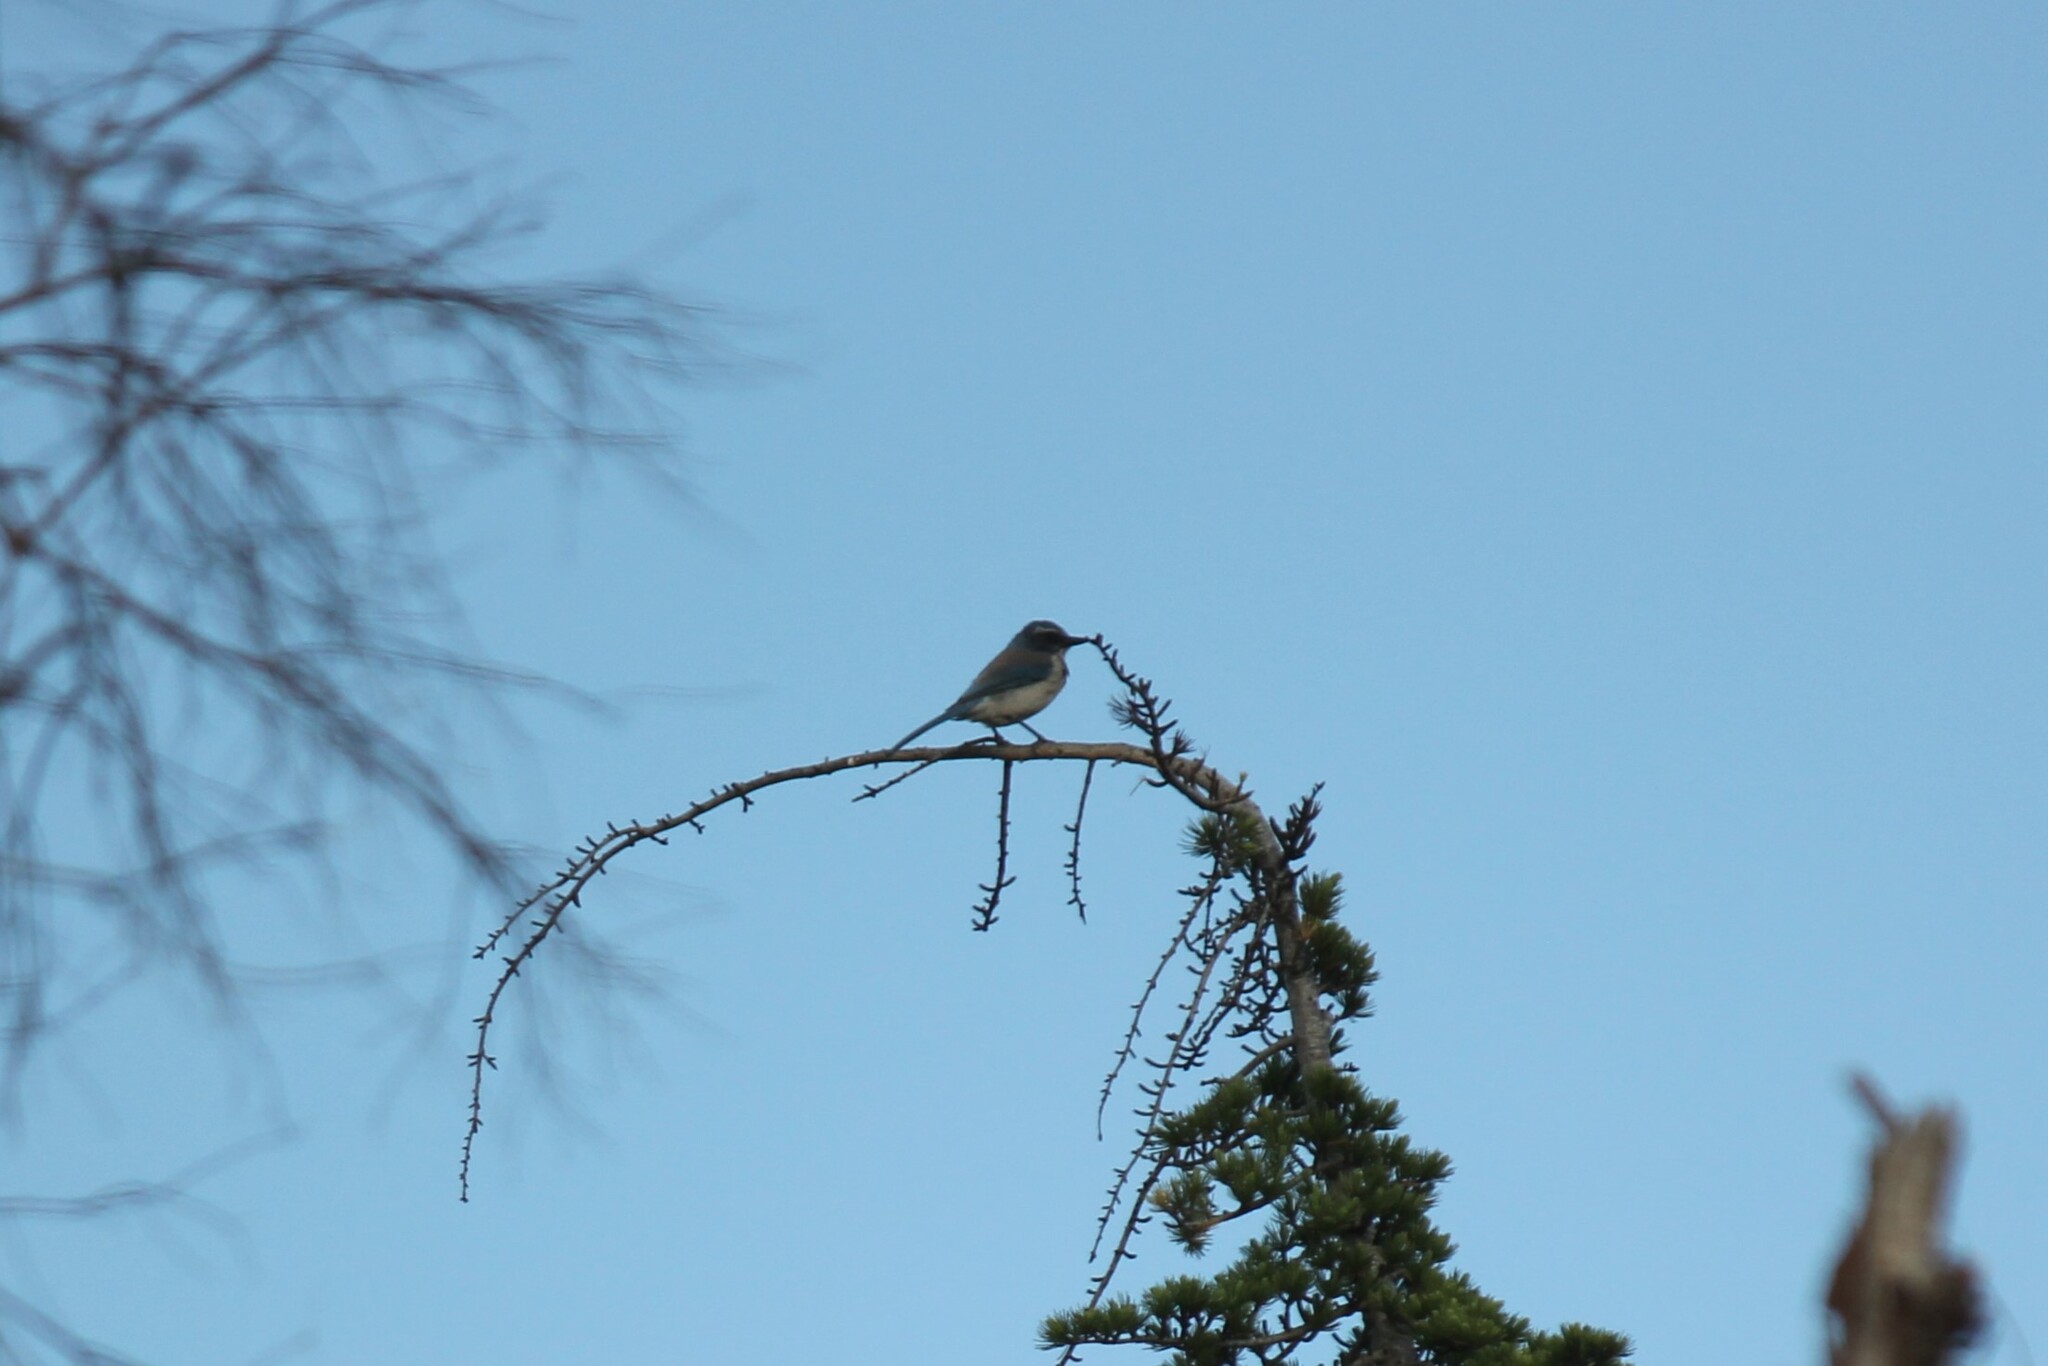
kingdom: Animalia
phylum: Chordata
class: Aves
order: Passeriformes
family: Corvidae
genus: Aphelocoma
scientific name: Aphelocoma californica
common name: California scrub-jay
